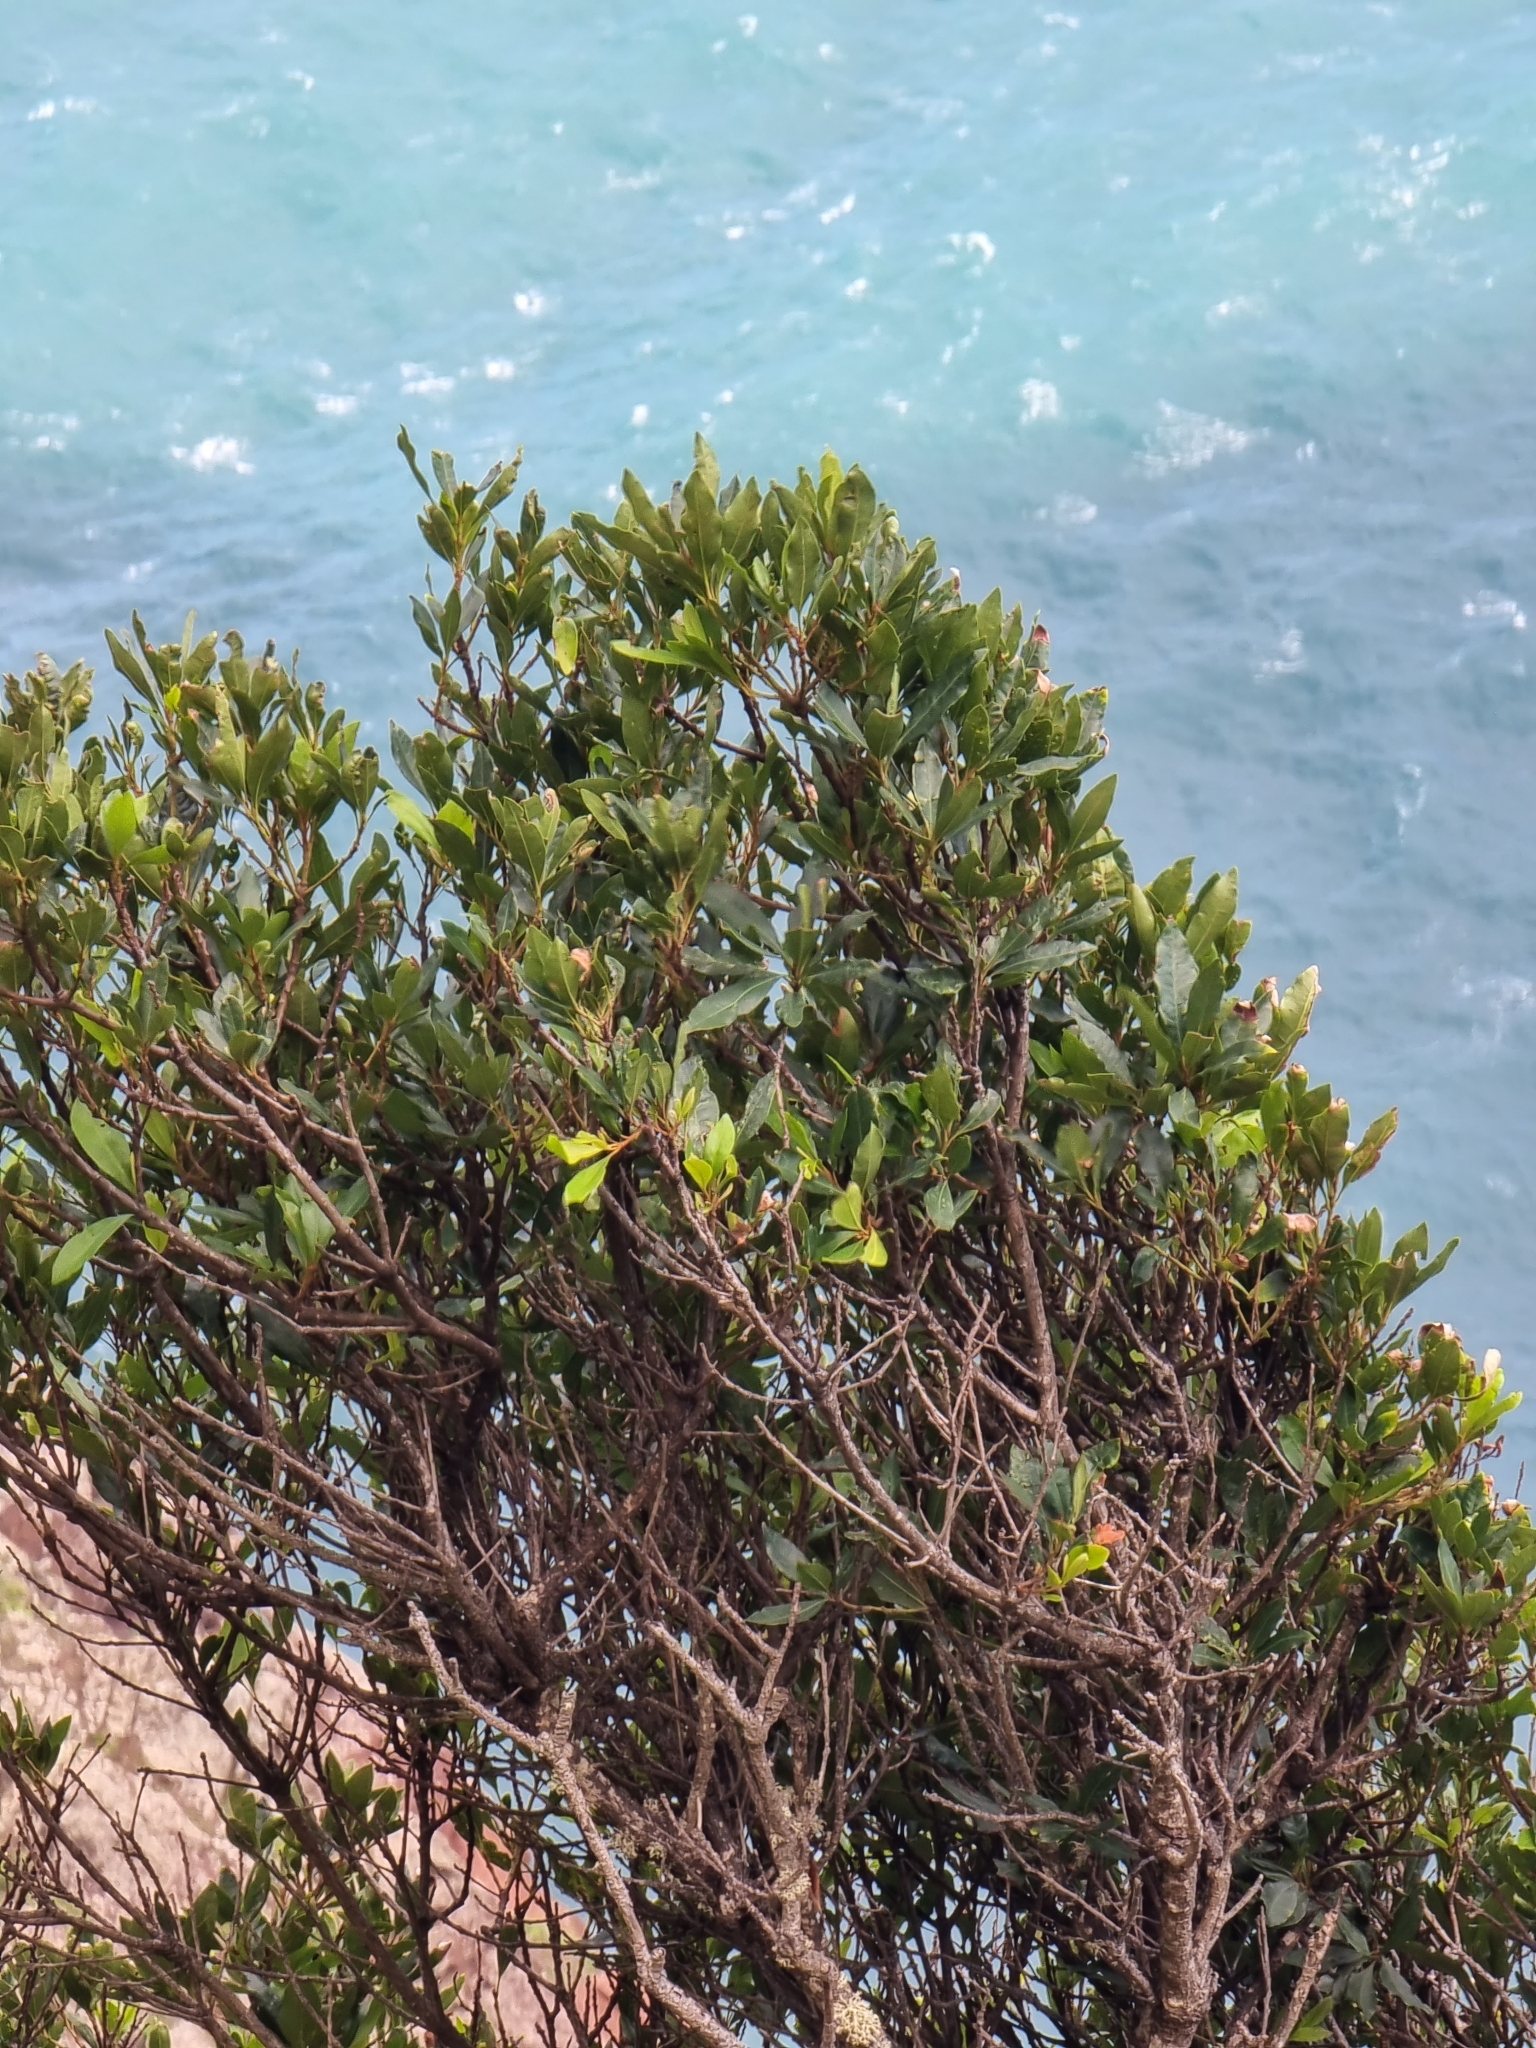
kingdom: Plantae
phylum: Tracheophyta
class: Magnoliopsida
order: Fagales
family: Myricaceae
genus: Morella
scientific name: Morella faya
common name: Firetree
